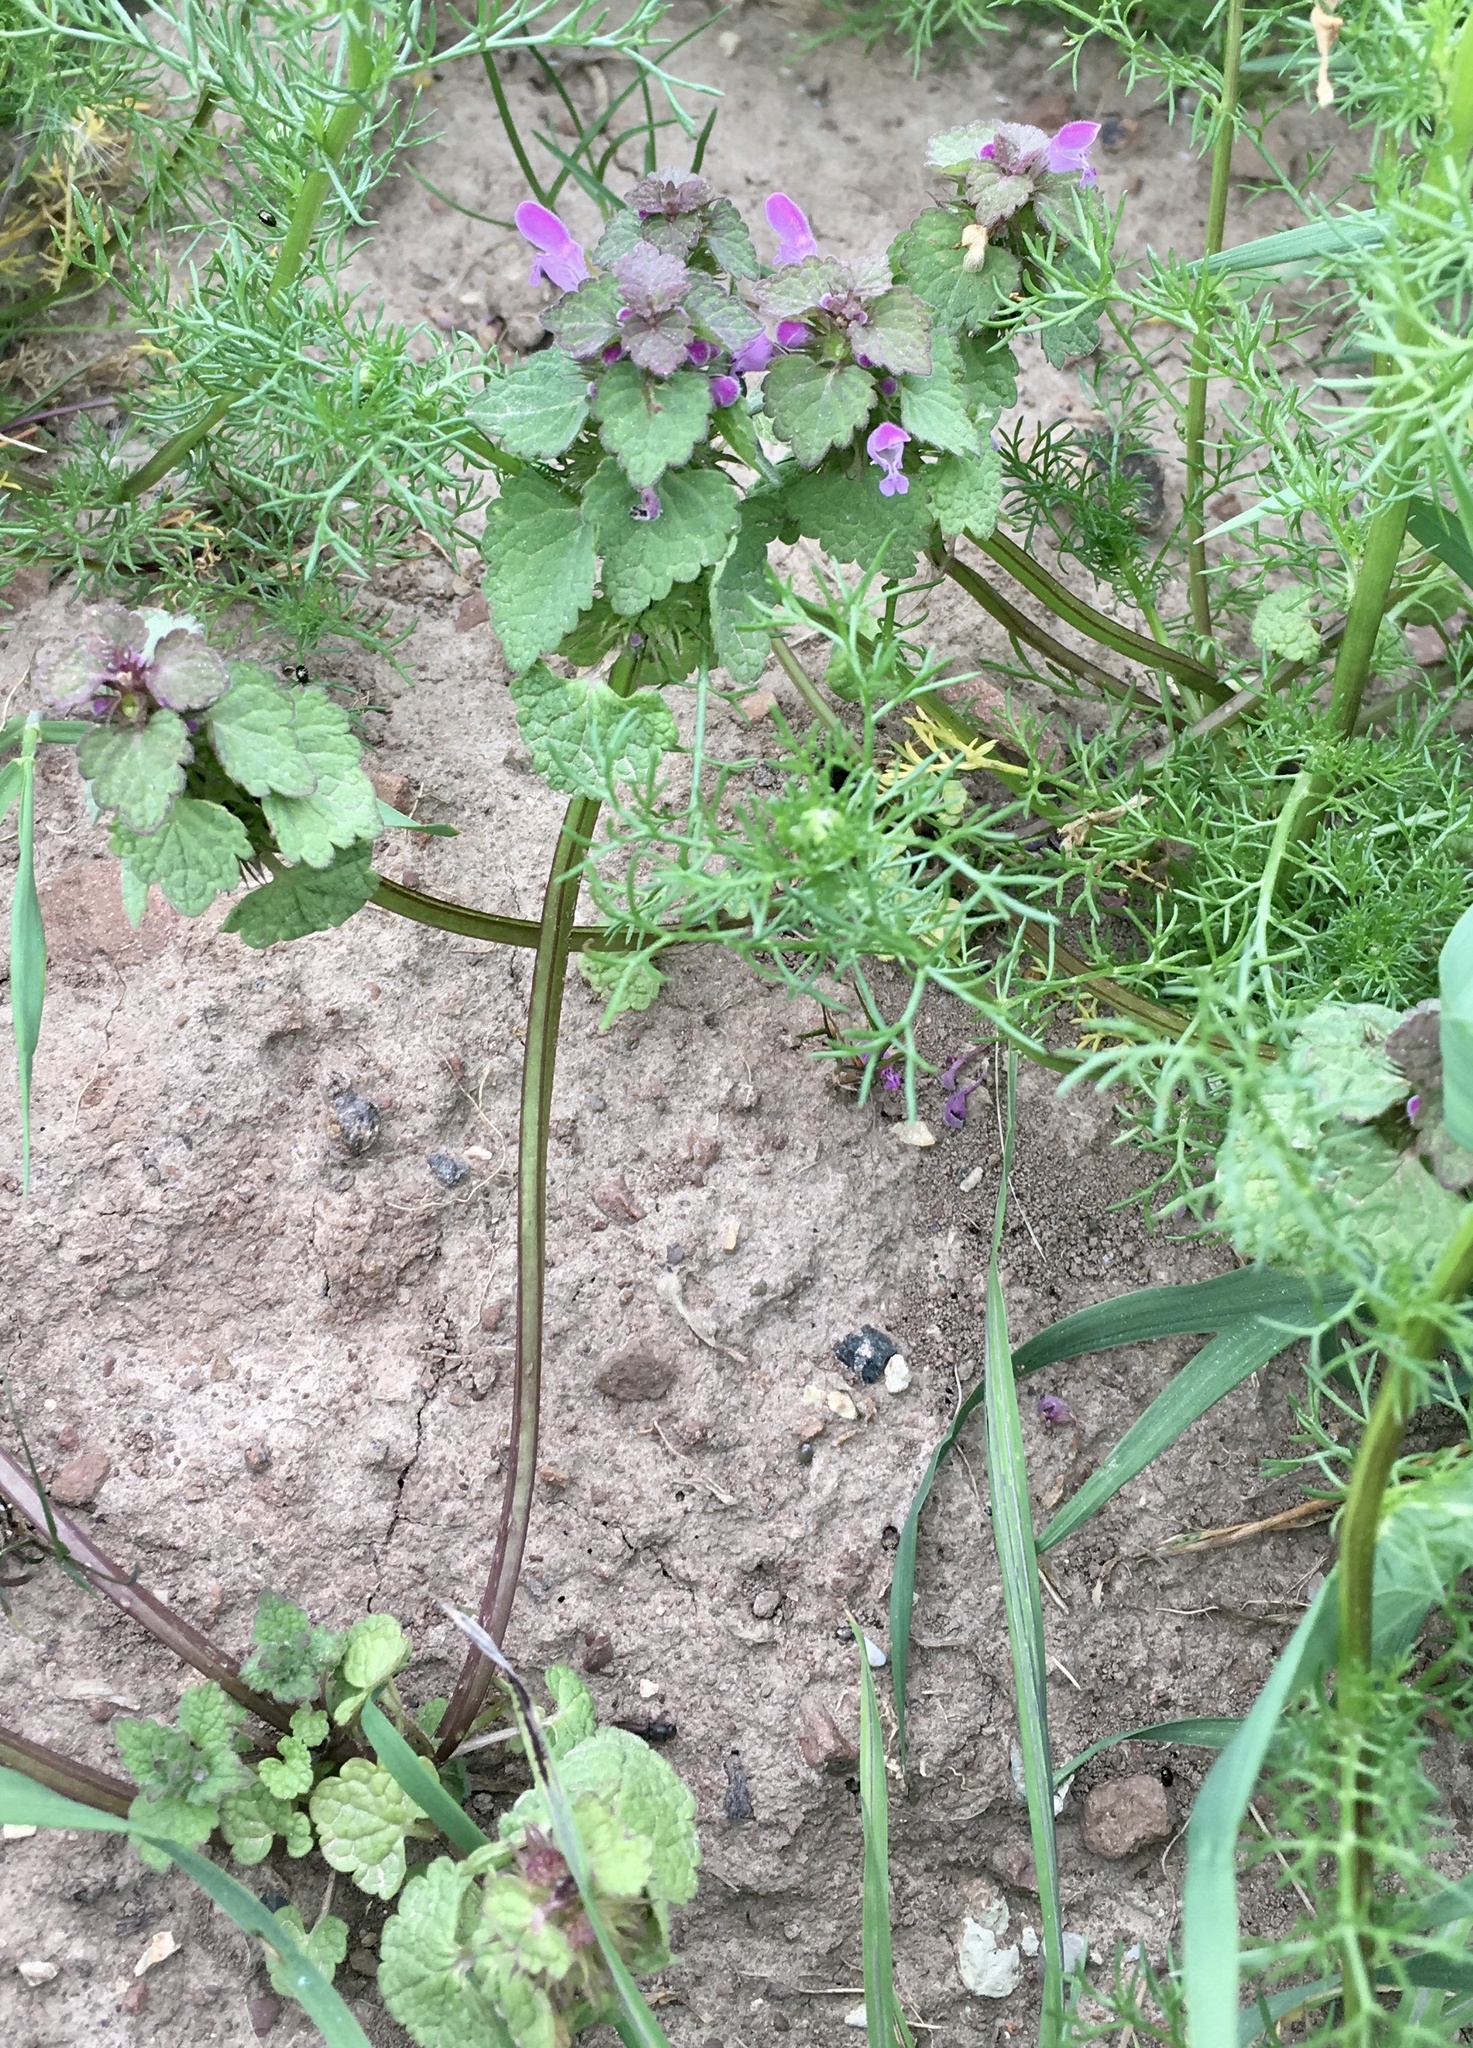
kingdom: Plantae
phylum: Tracheophyta
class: Magnoliopsida
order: Lamiales
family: Lamiaceae
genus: Lamium
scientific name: Lamium purpureum
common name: Red dead-nettle
